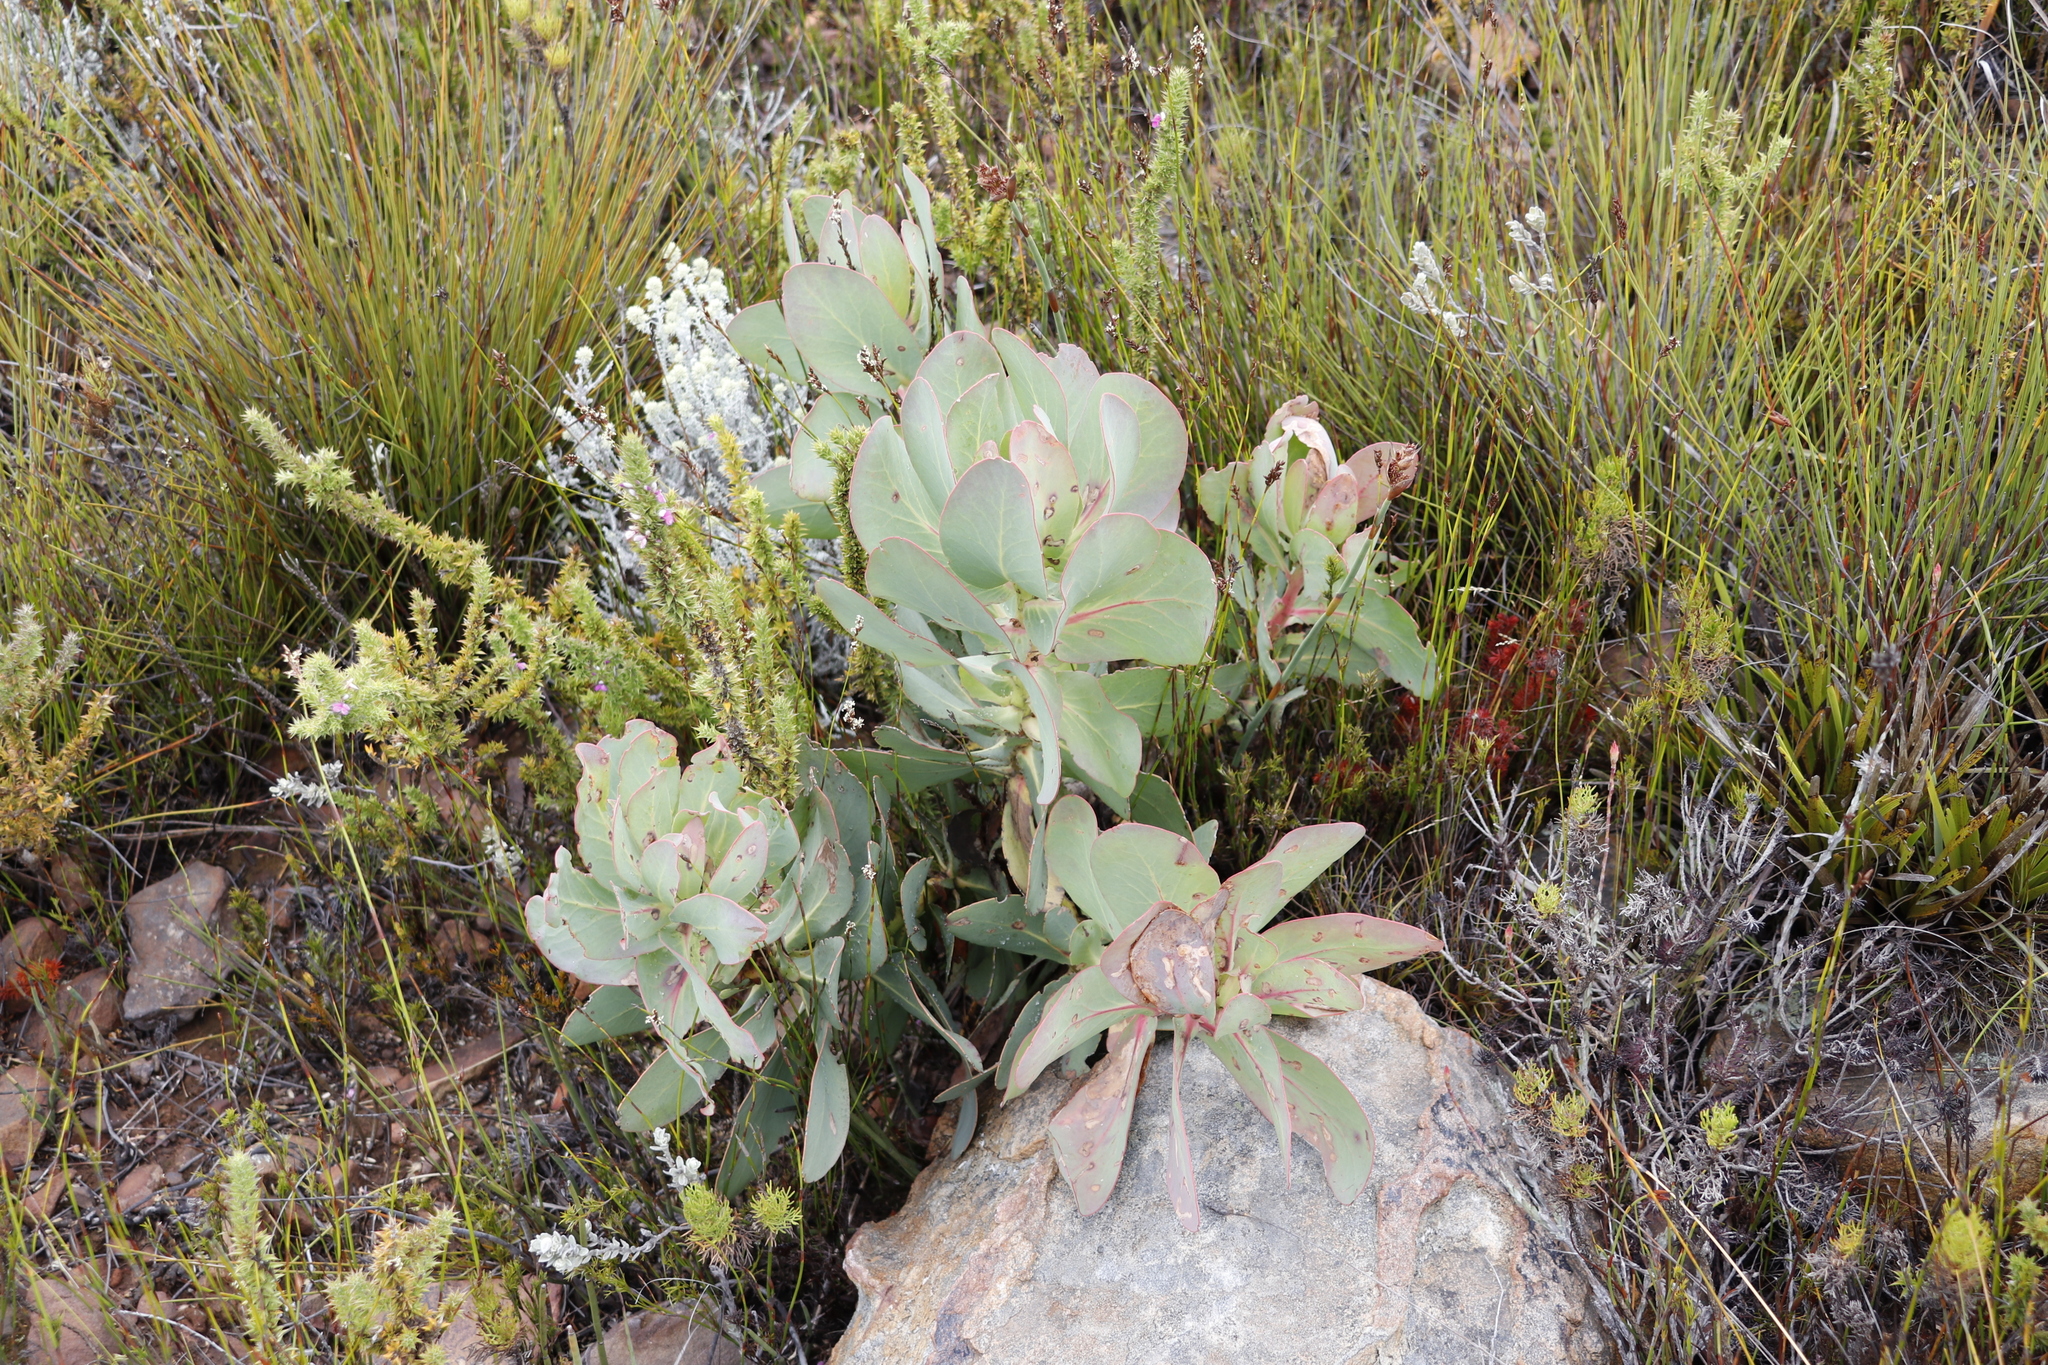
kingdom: Plantae
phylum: Tracheophyta
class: Magnoliopsida
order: Proteales
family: Proteaceae
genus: Protea
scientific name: Protea grandiceps
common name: Red sugarbush
